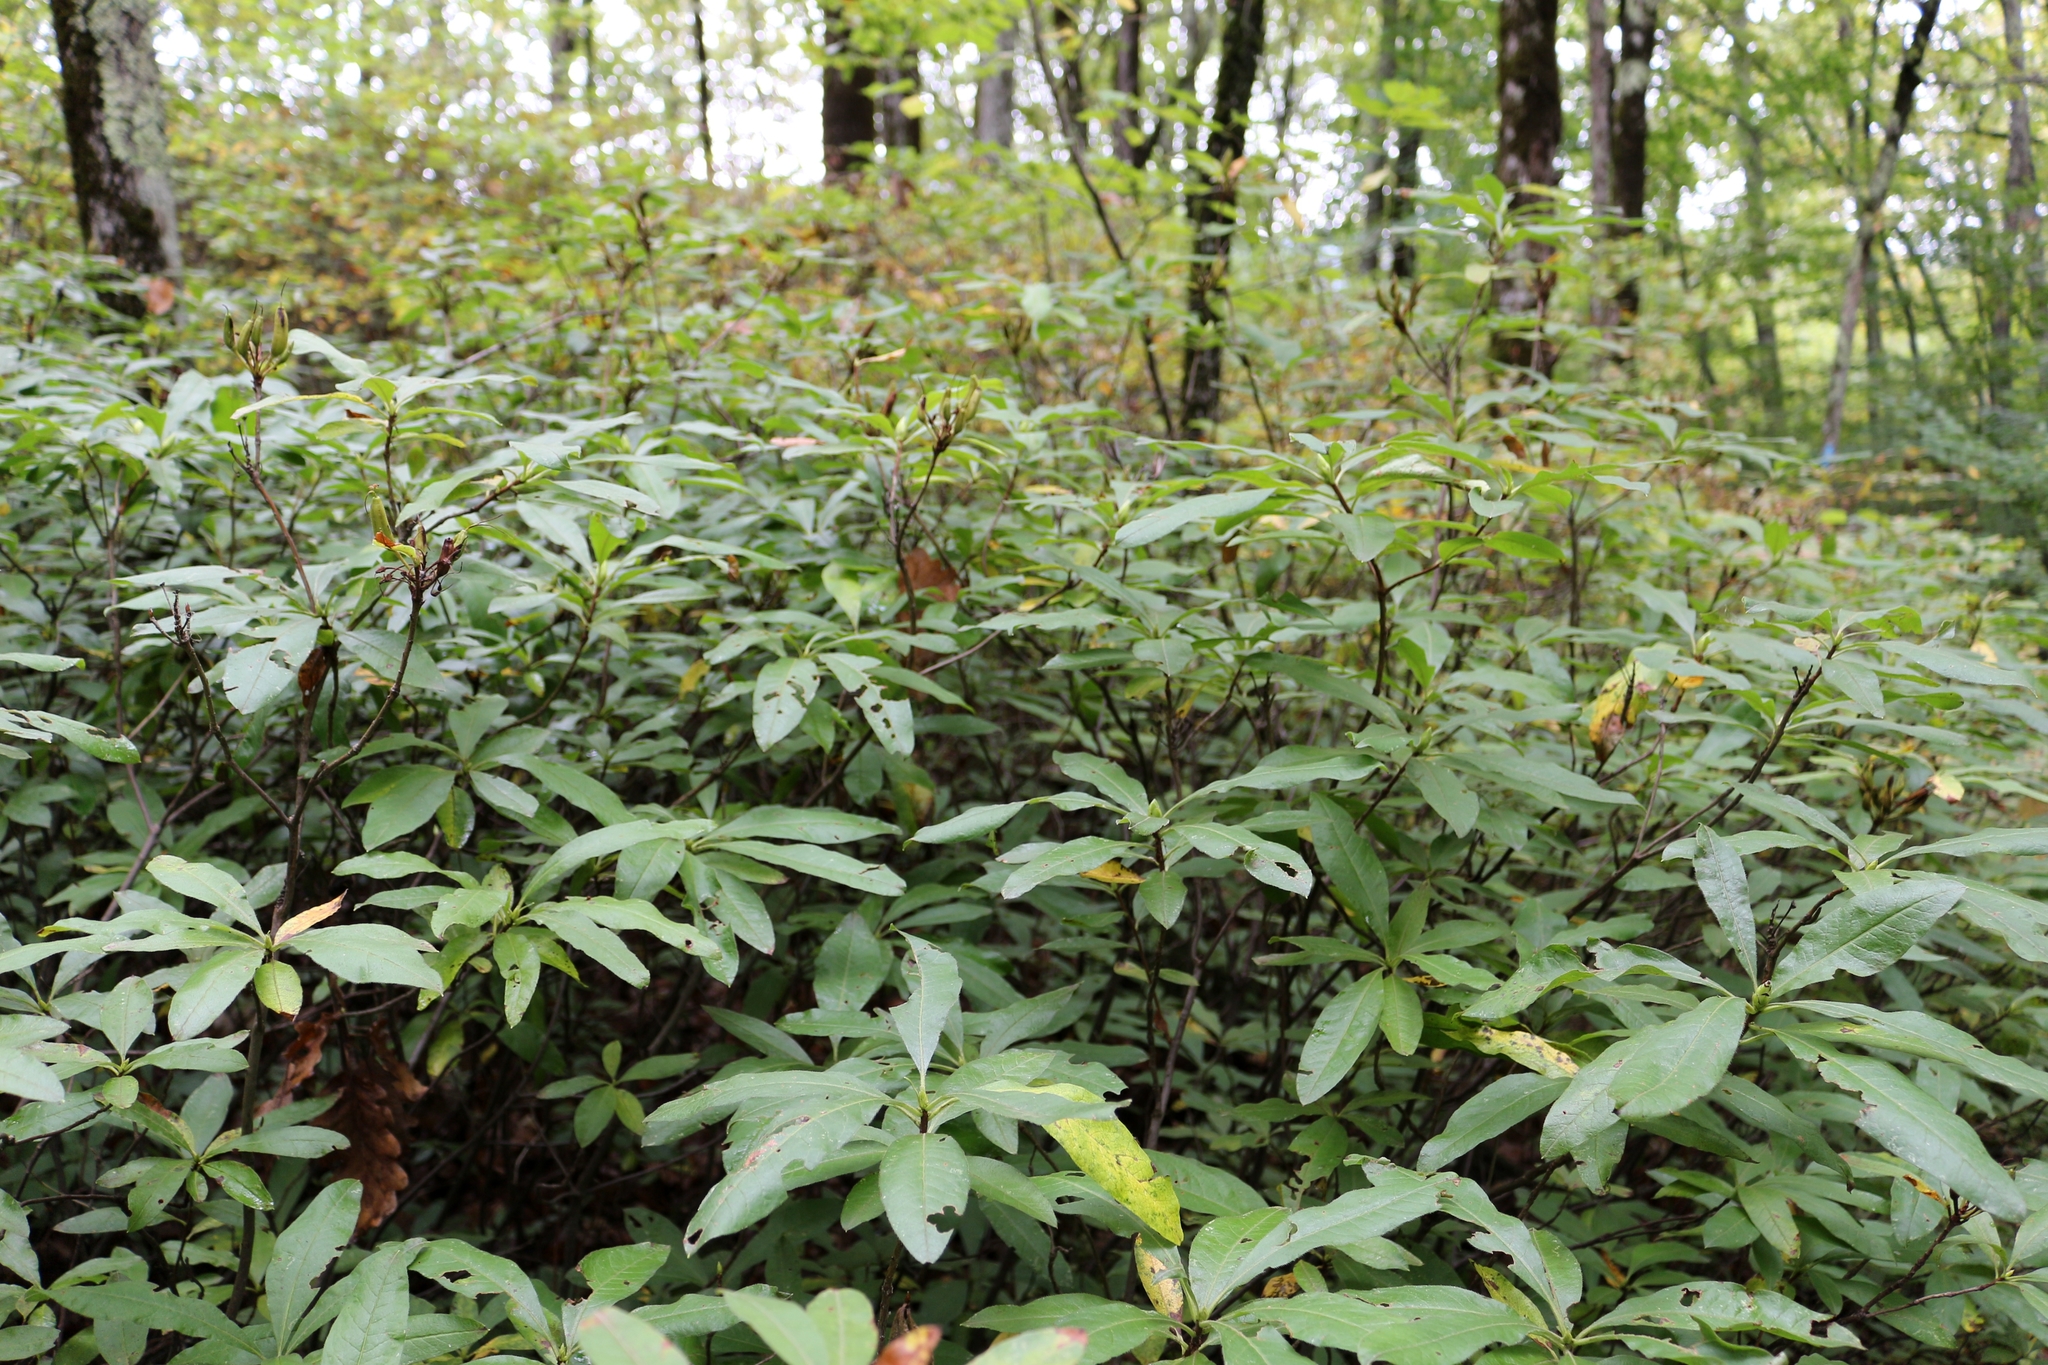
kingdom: Plantae
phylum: Tracheophyta
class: Magnoliopsida
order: Ericales
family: Ericaceae
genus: Rhododendron
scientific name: Rhododendron luteum
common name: Yellow azalea
